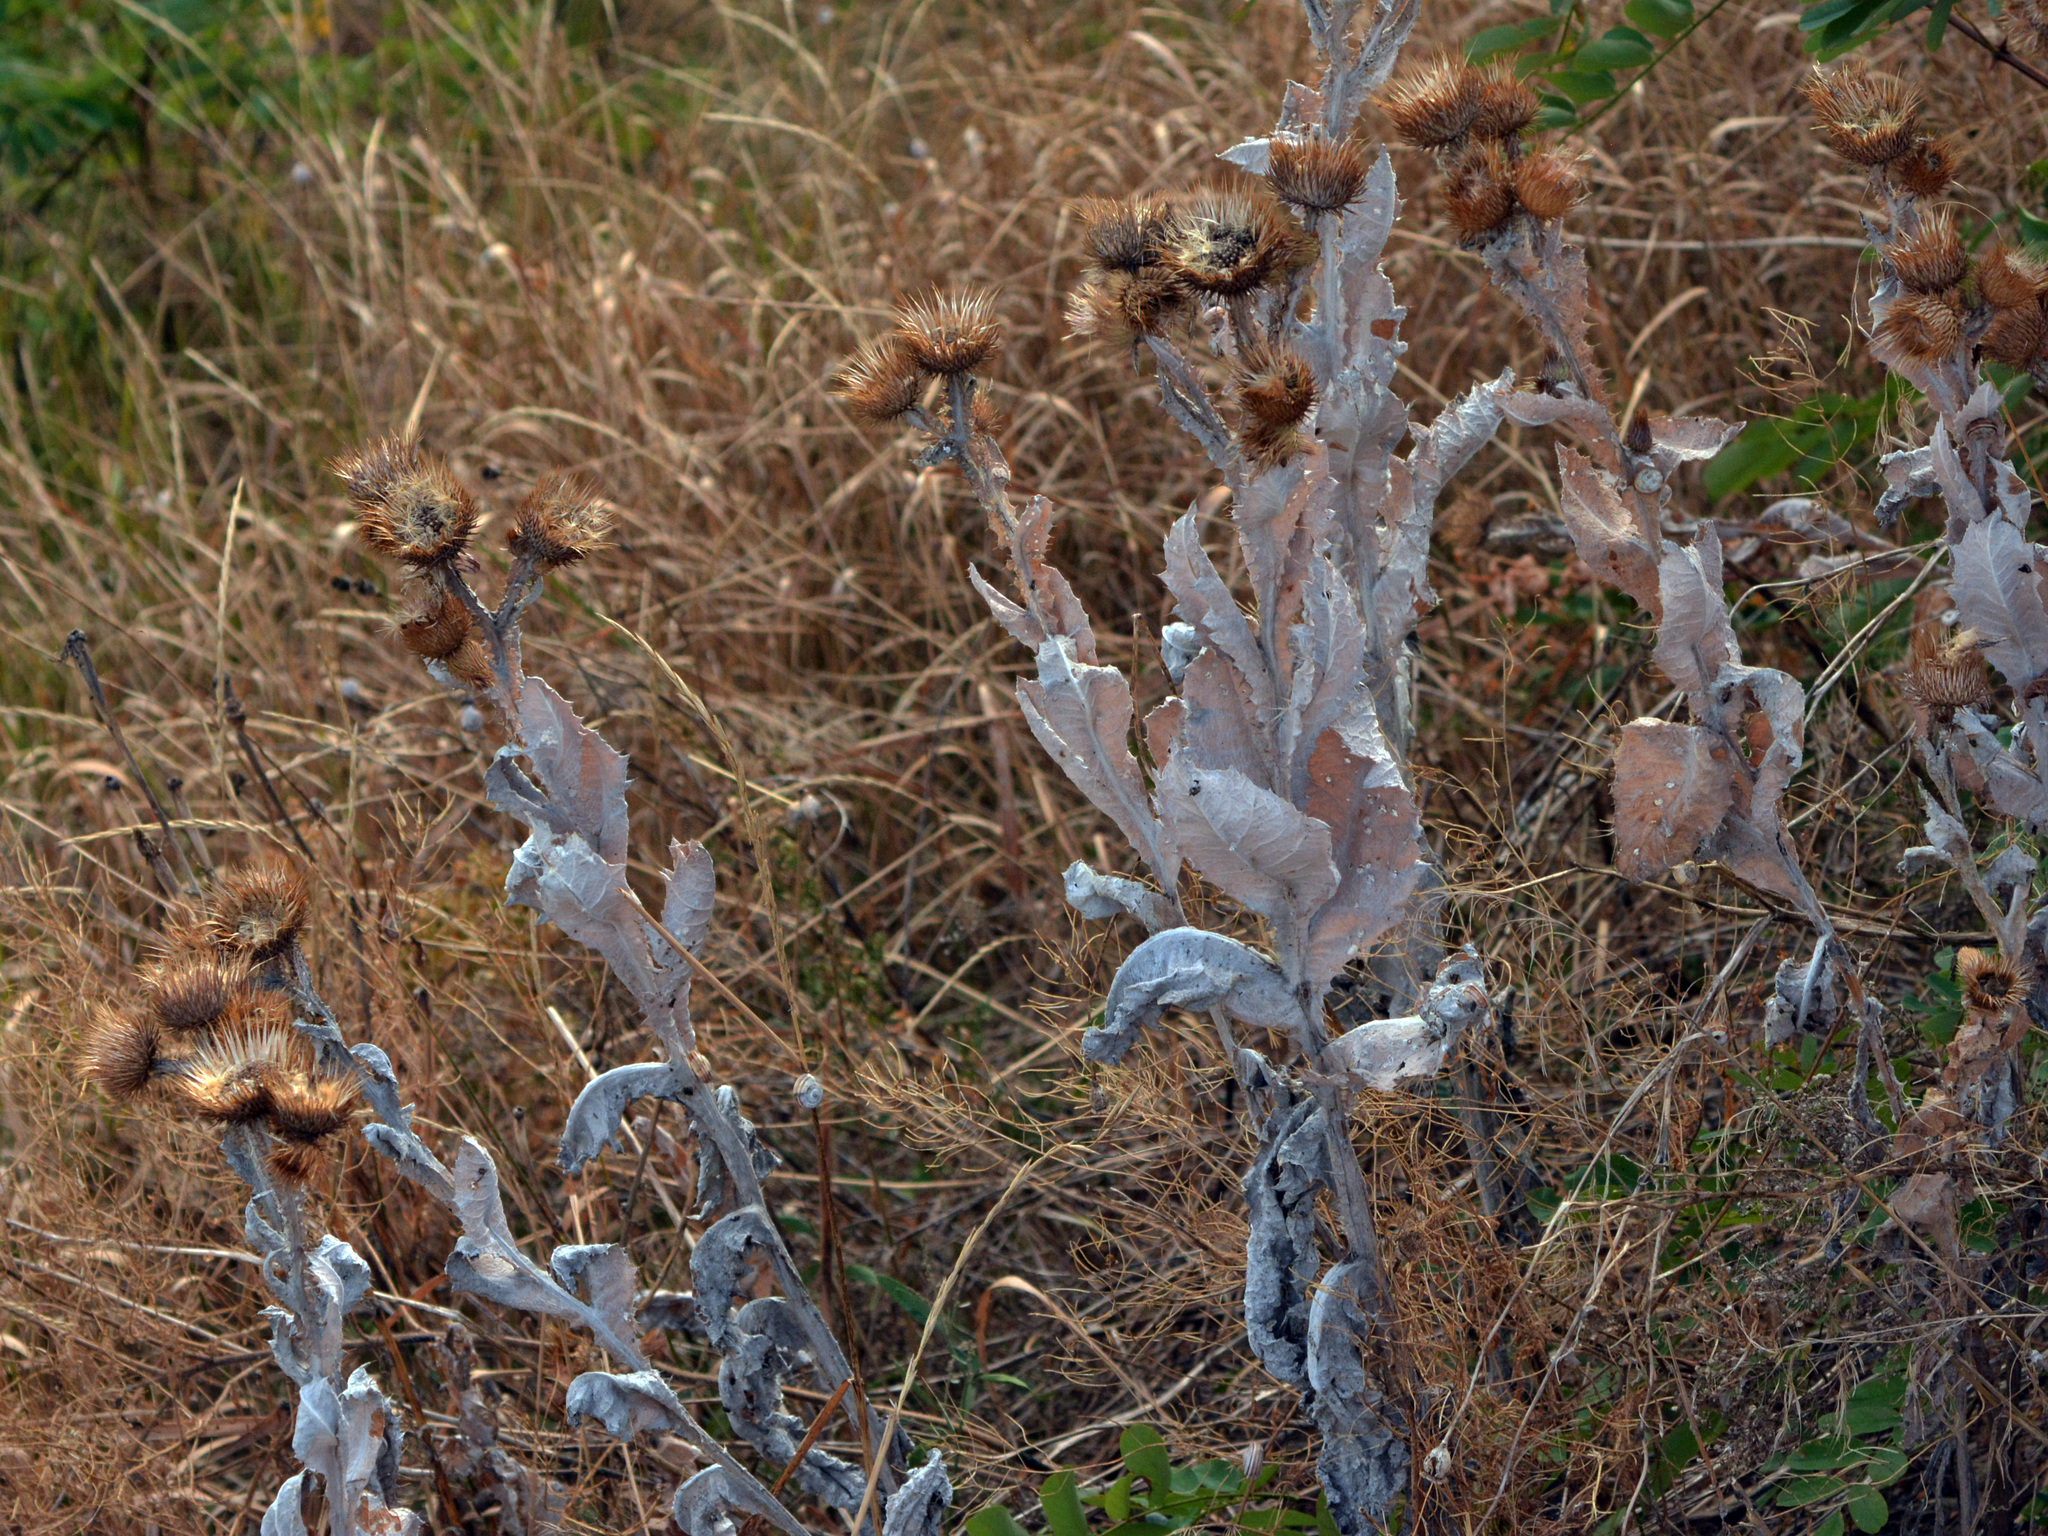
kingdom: Plantae
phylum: Tracheophyta
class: Magnoliopsida
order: Asterales
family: Asteraceae
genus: Onopordum
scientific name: Onopordum acanthium
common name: Scotch thistle
